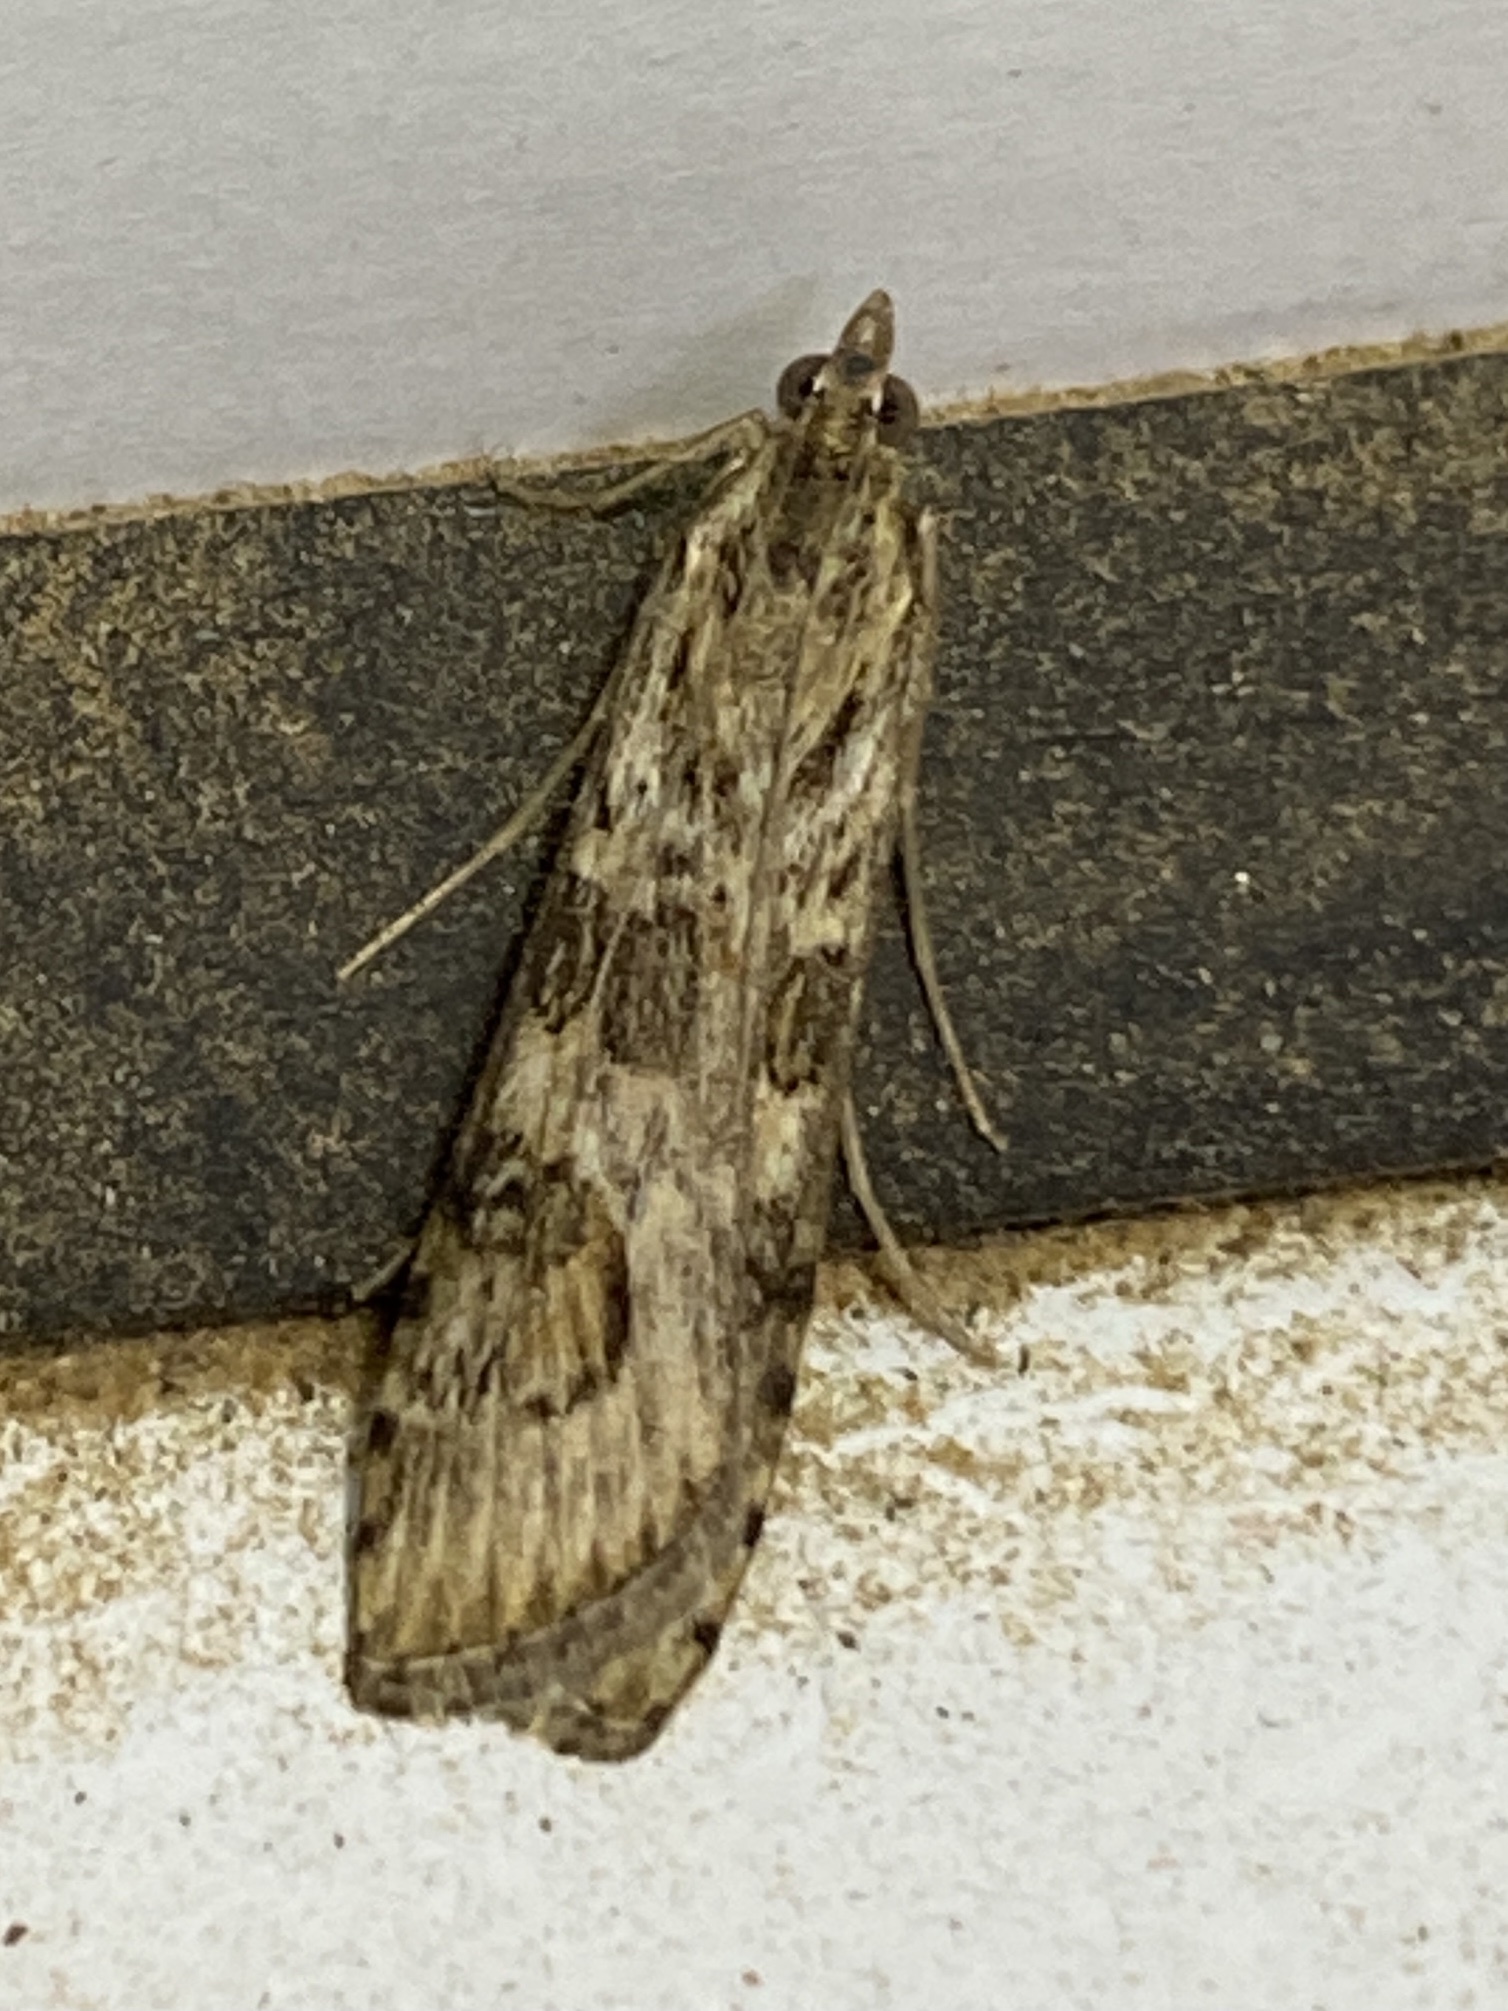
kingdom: Animalia
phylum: Arthropoda
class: Insecta
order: Lepidoptera
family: Crambidae
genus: Nomophila
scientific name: Nomophila noctuella
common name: Rush veneer
